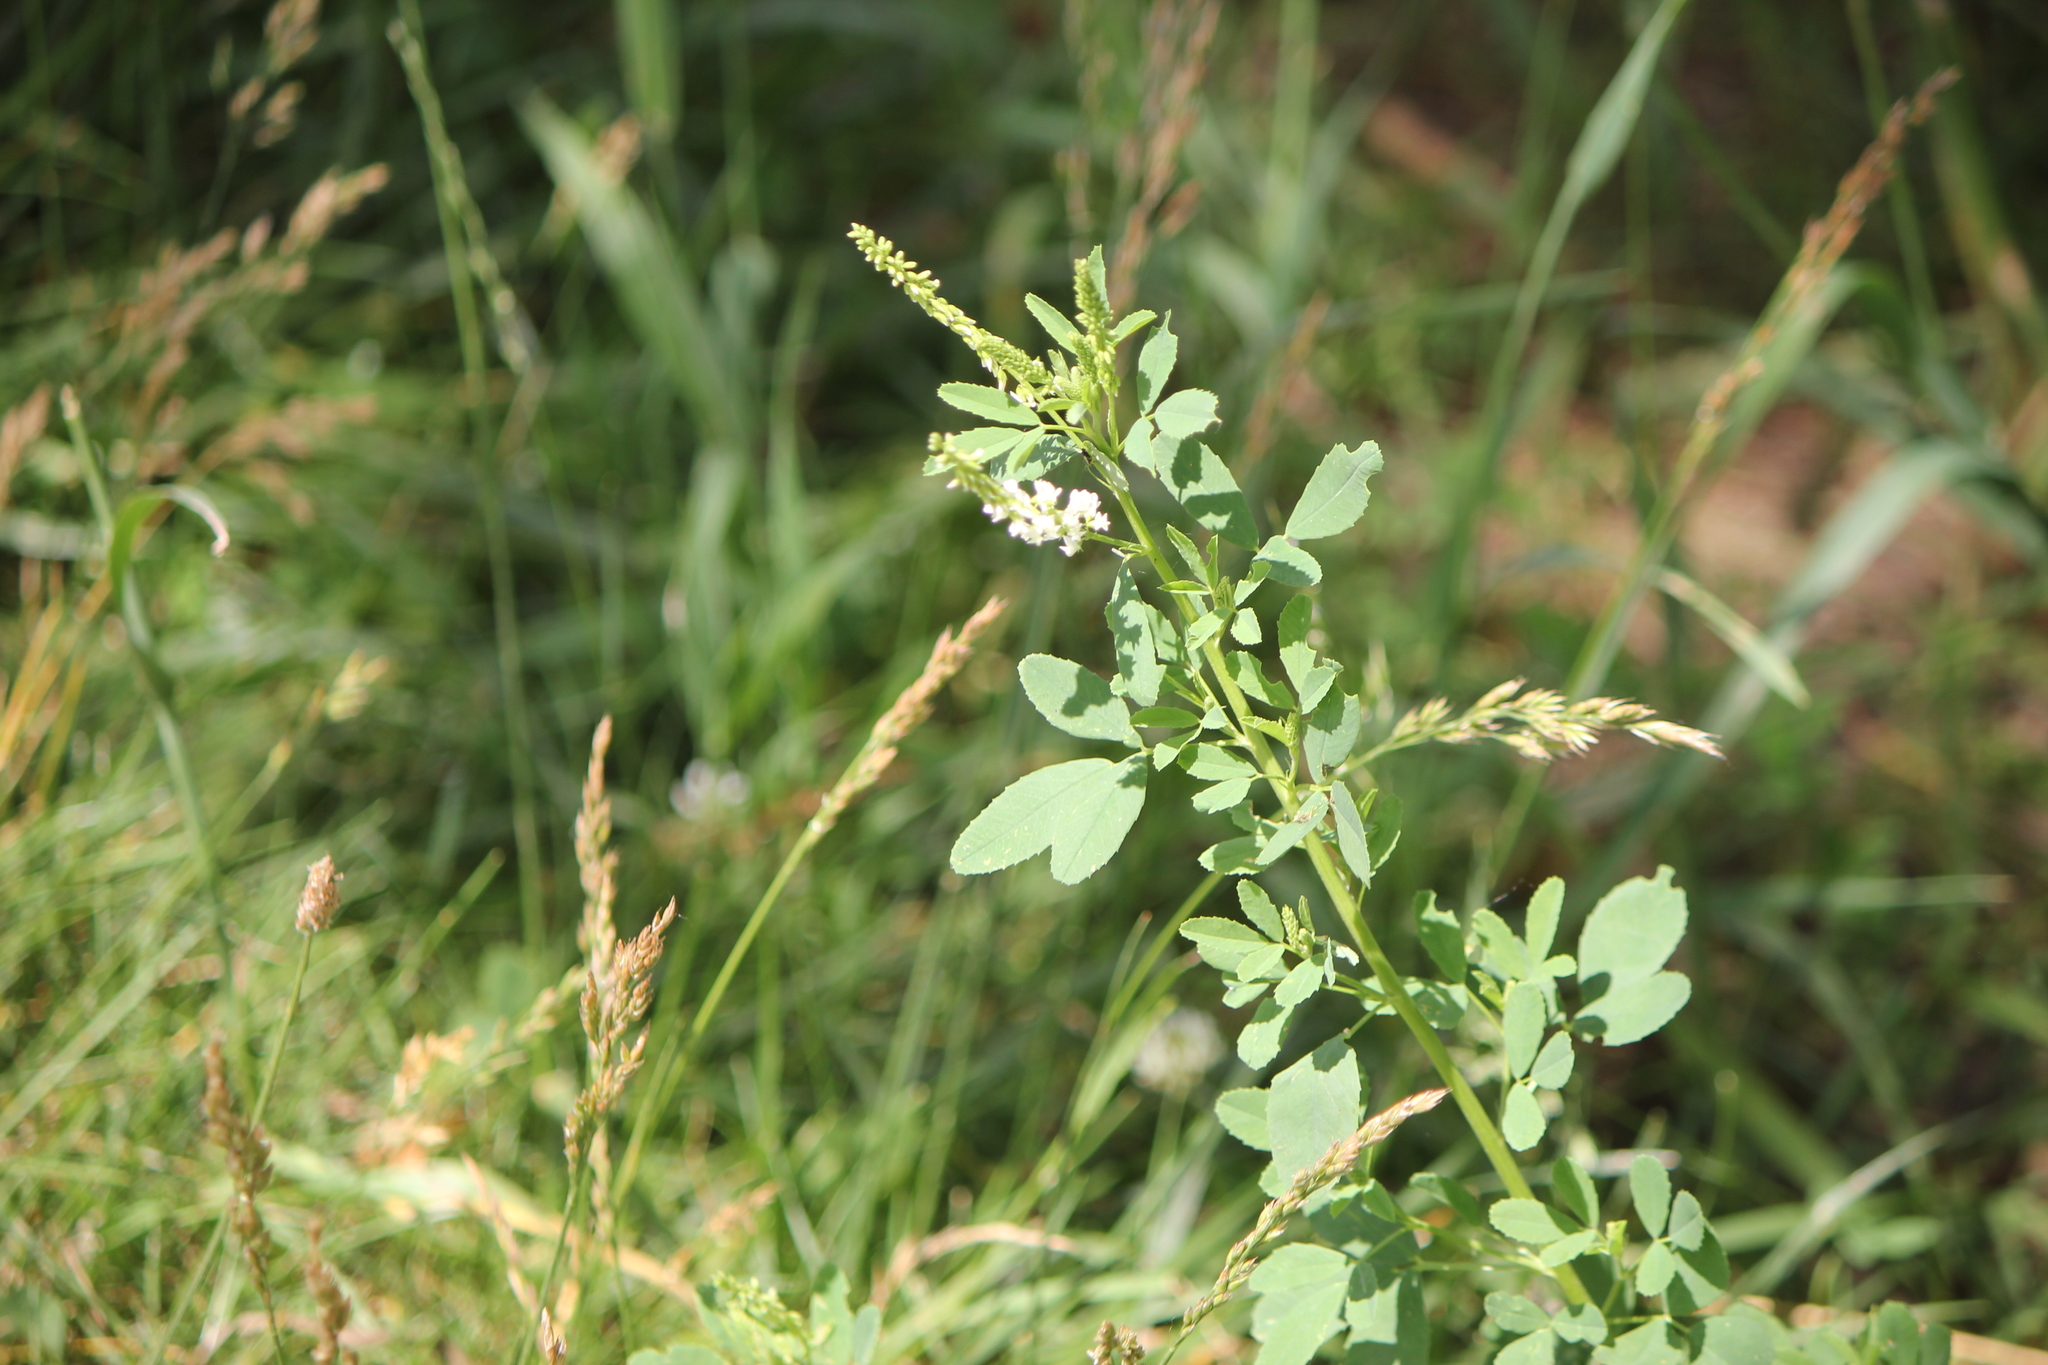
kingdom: Plantae
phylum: Tracheophyta
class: Magnoliopsida
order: Fabales
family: Fabaceae
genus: Melilotus
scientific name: Melilotus albus
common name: White melilot
